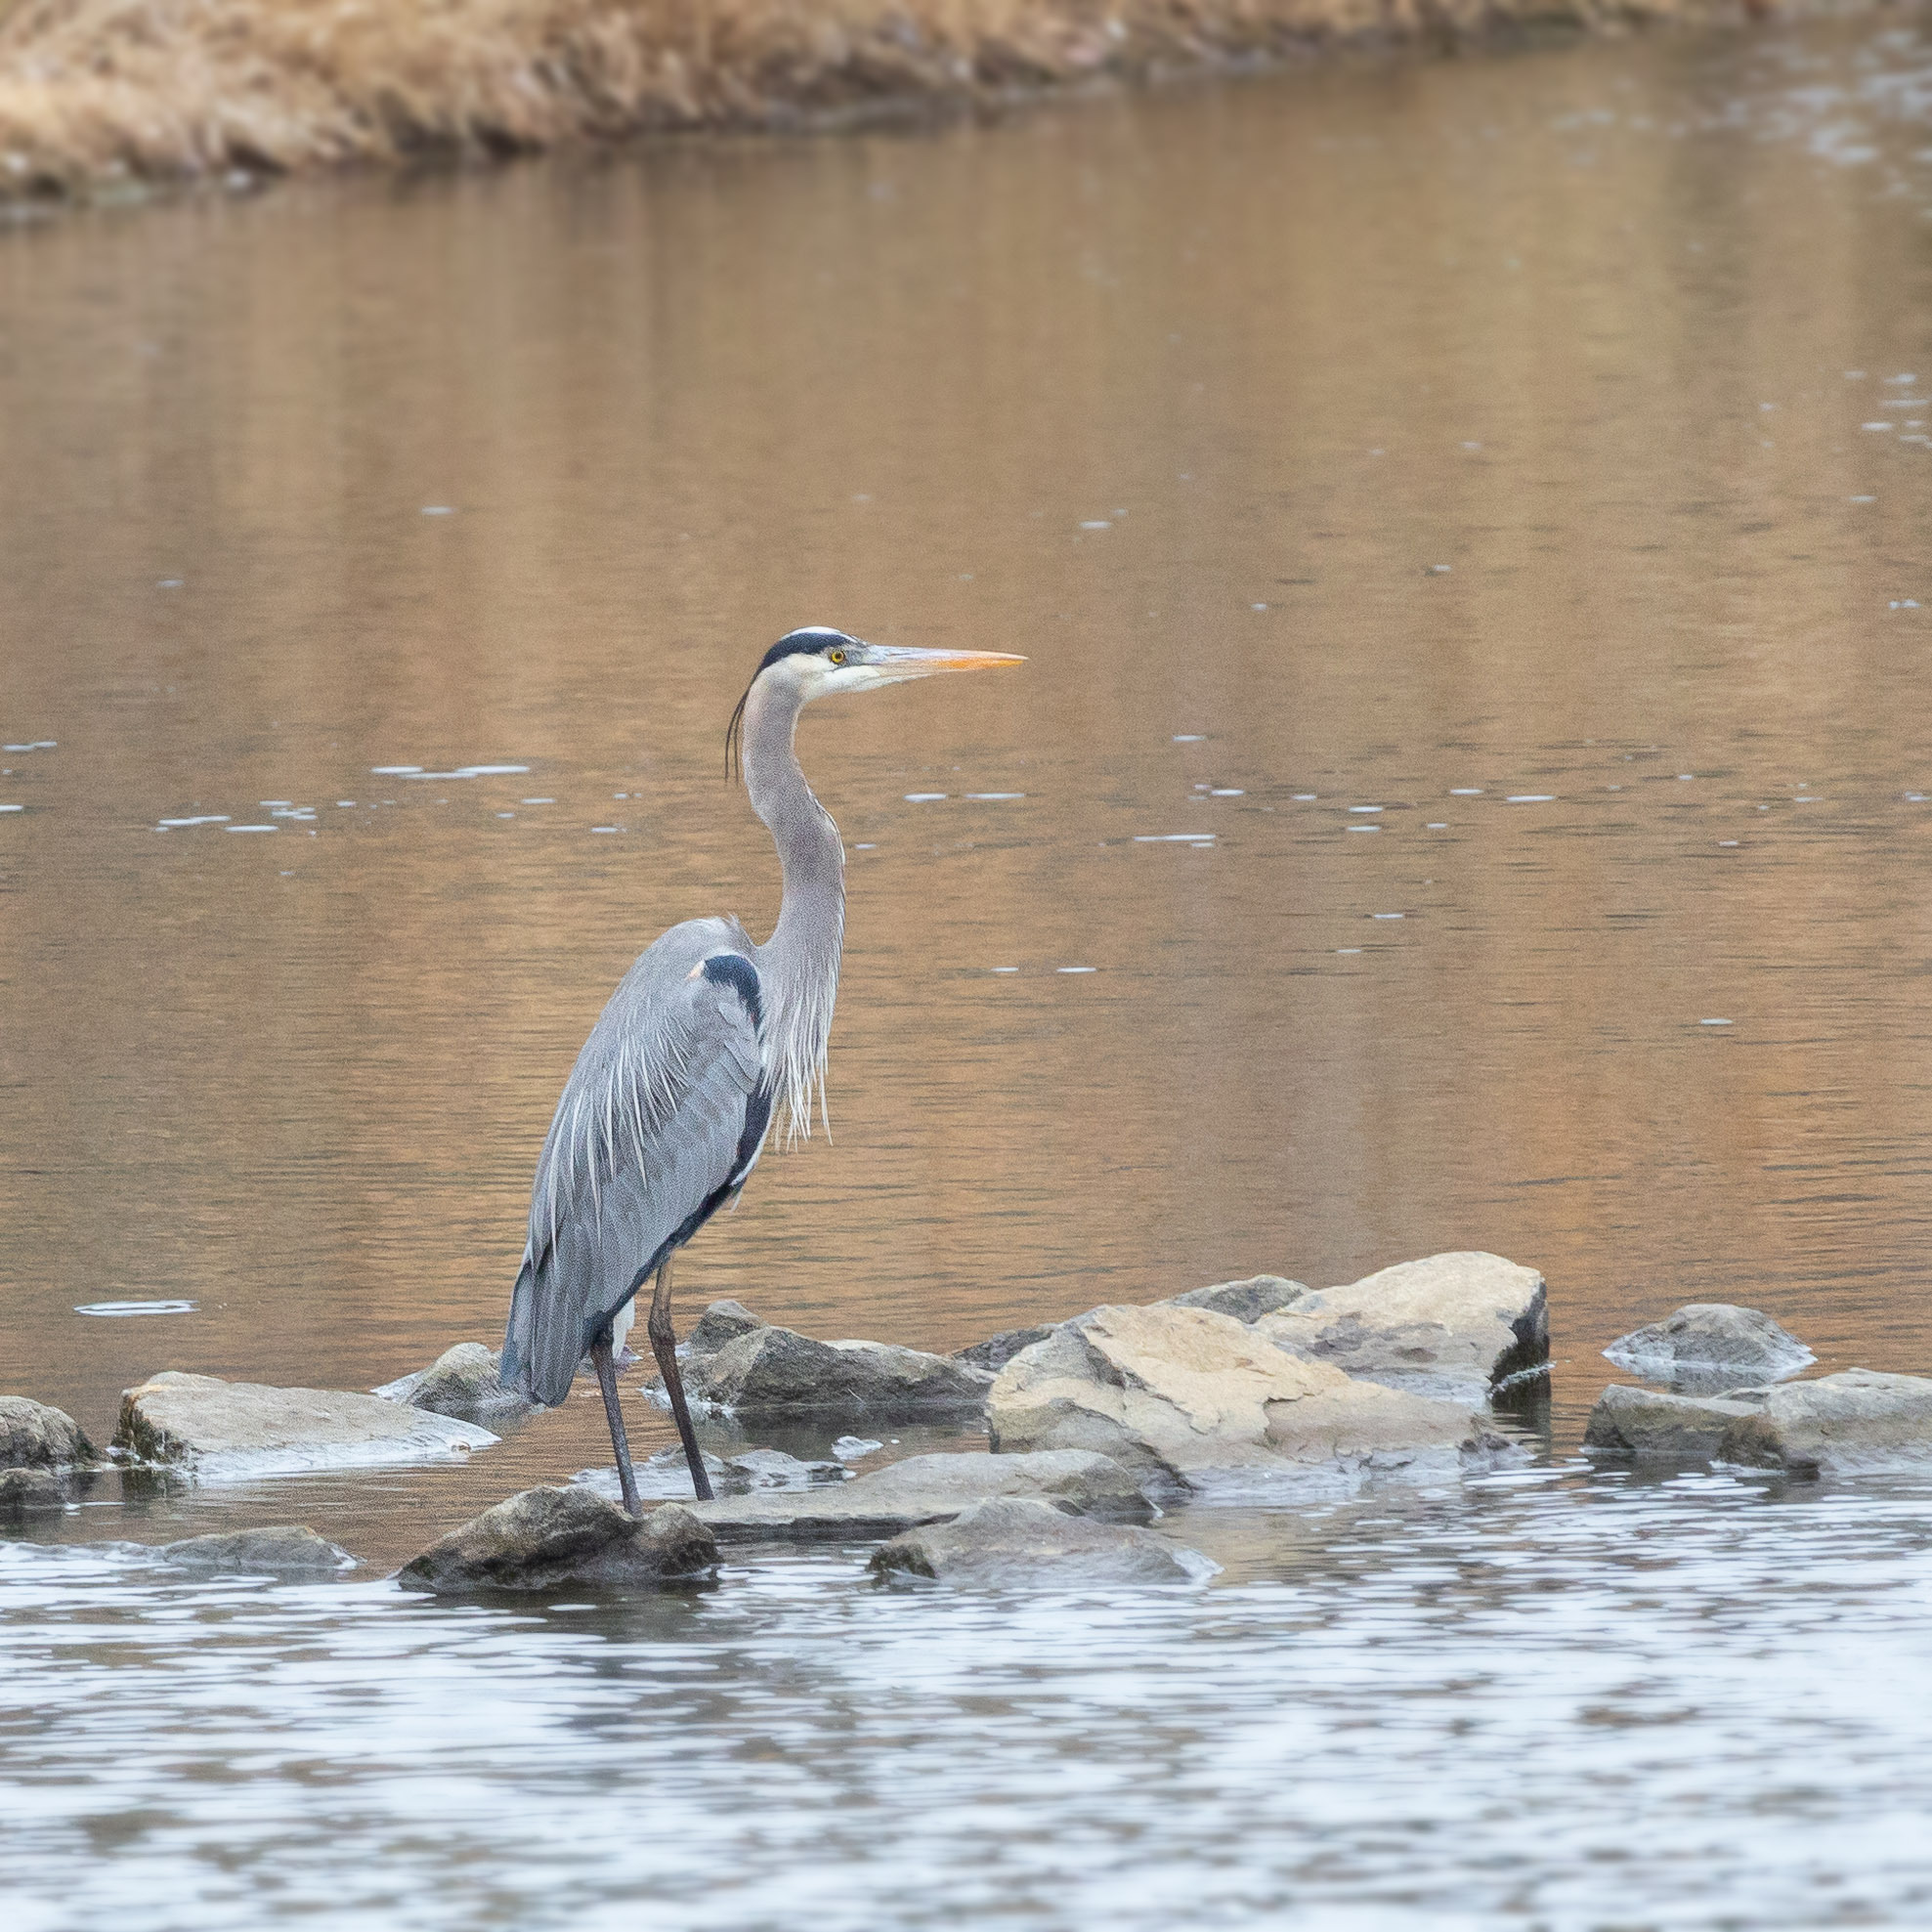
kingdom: Animalia
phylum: Chordata
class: Aves
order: Pelecaniformes
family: Ardeidae
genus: Ardea
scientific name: Ardea herodias
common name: Great blue heron
